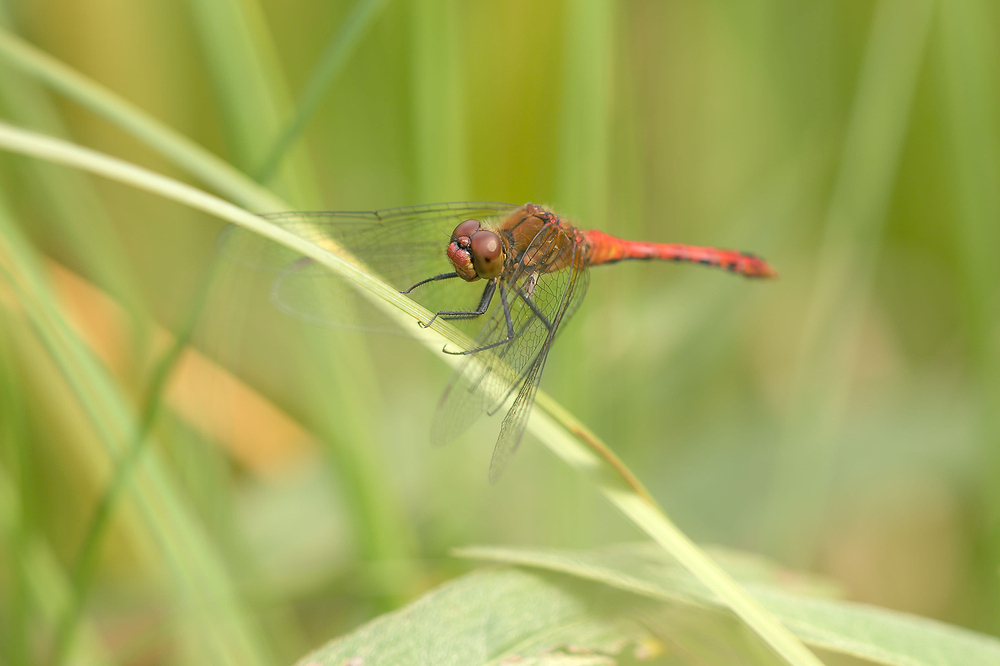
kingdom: Animalia
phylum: Arthropoda
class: Insecta
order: Odonata
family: Libellulidae
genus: Sympetrum
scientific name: Sympetrum sanguineum
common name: Ruddy darter
